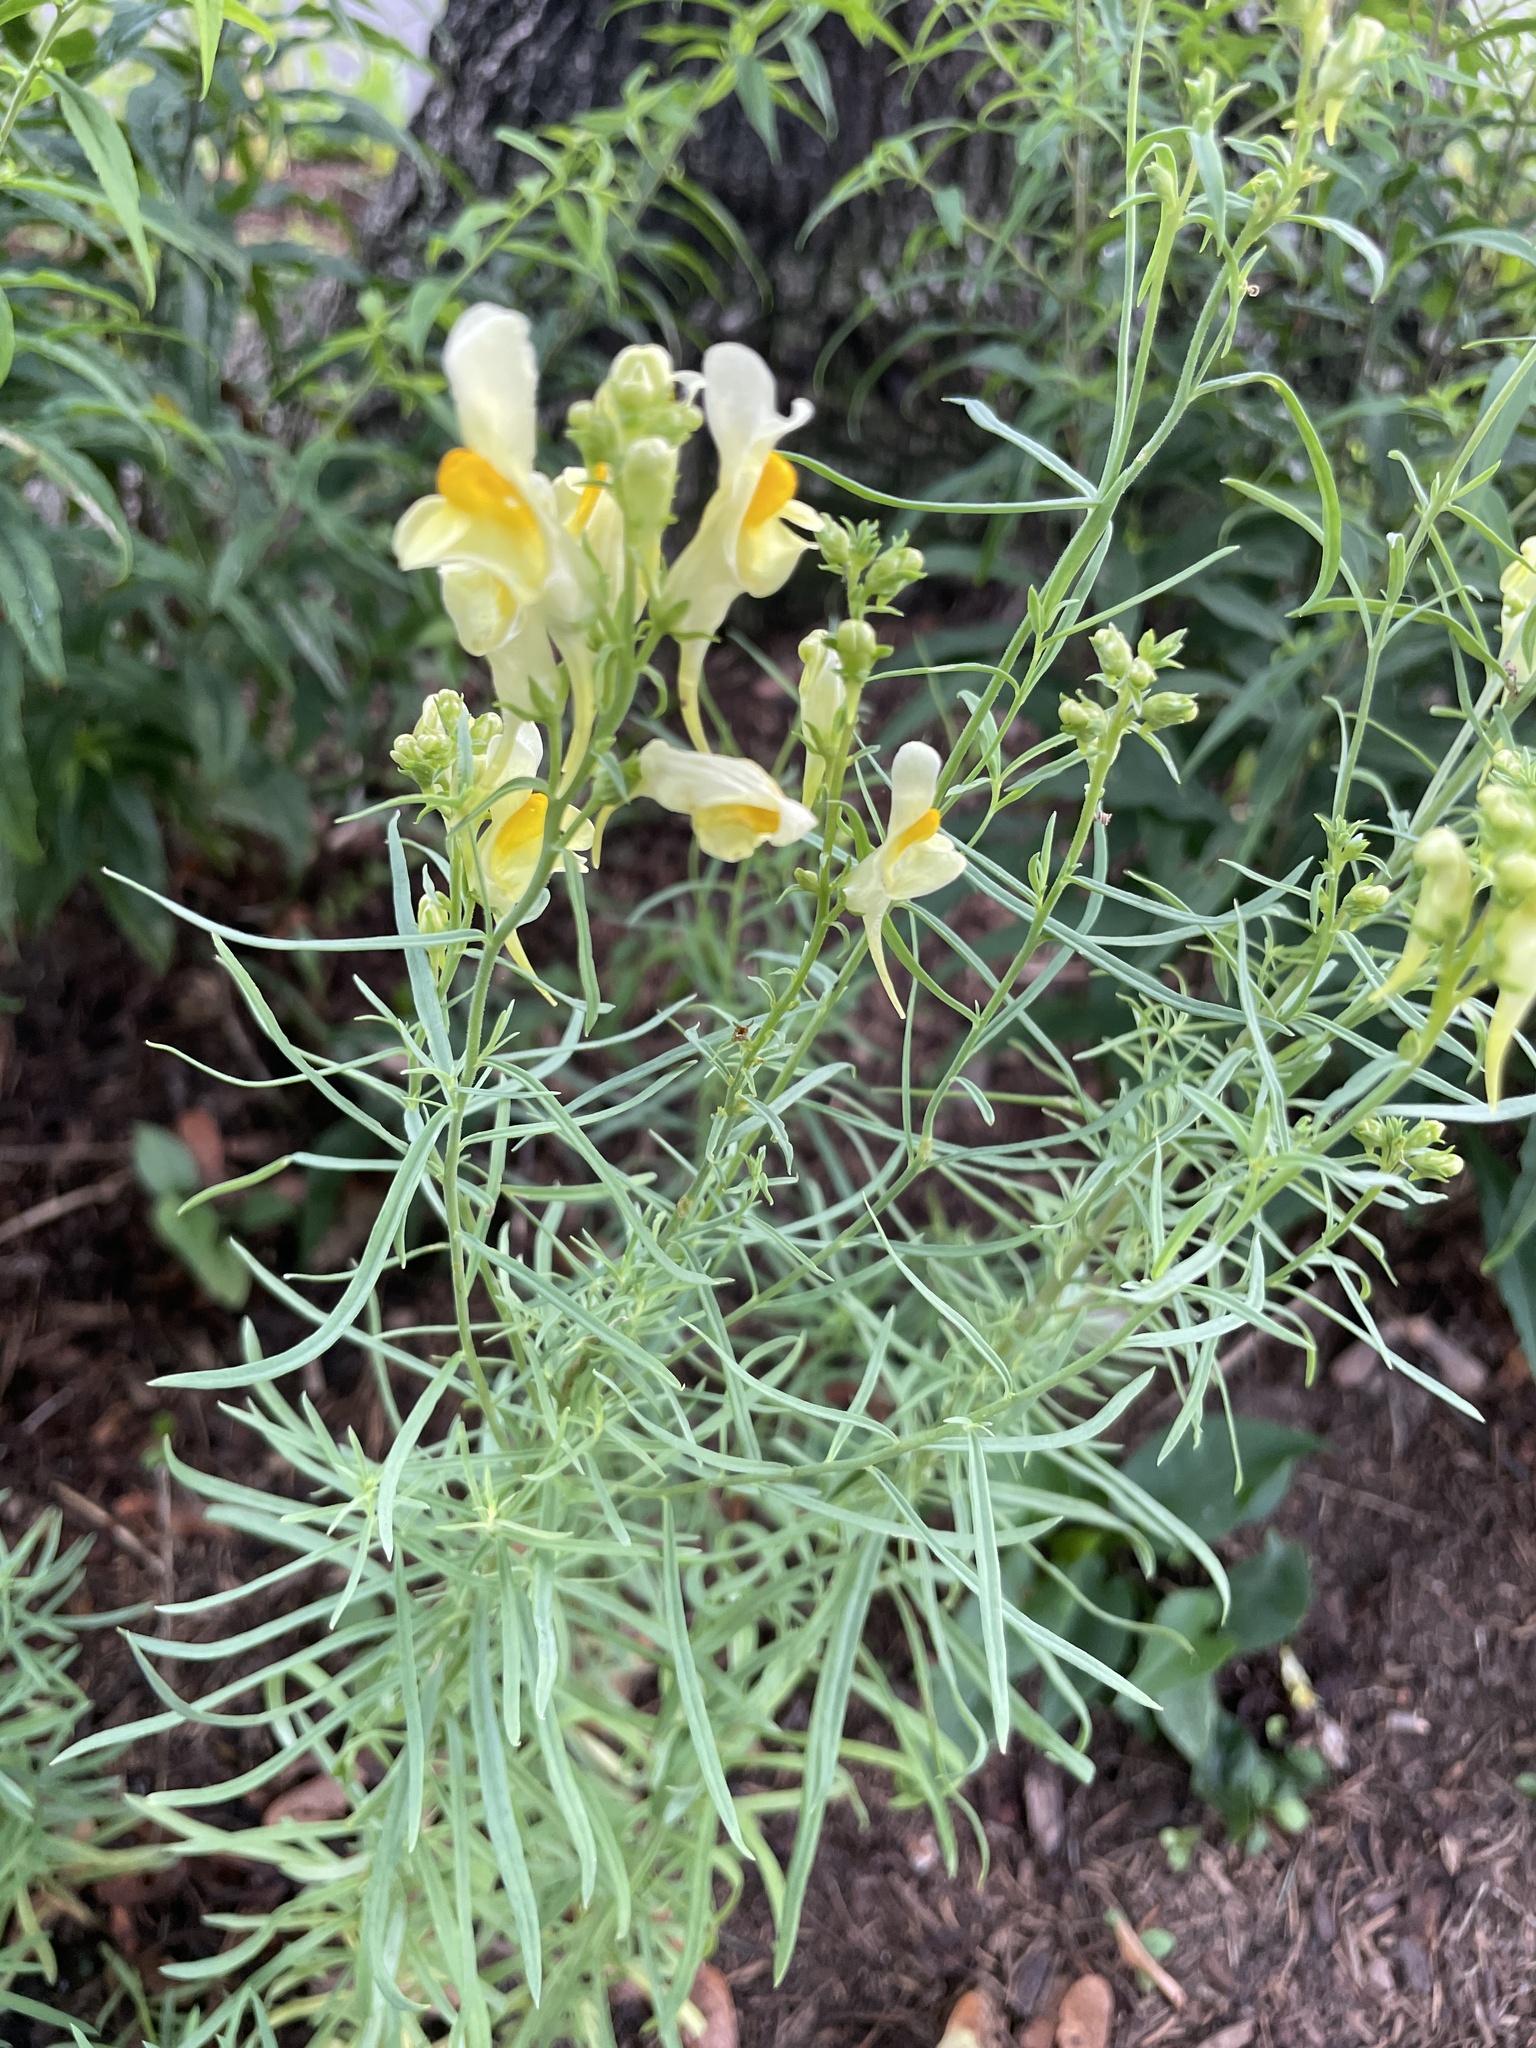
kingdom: Plantae
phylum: Tracheophyta
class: Magnoliopsida
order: Lamiales
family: Plantaginaceae
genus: Linaria
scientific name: Linaria vulgaris
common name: Butter and eggs
